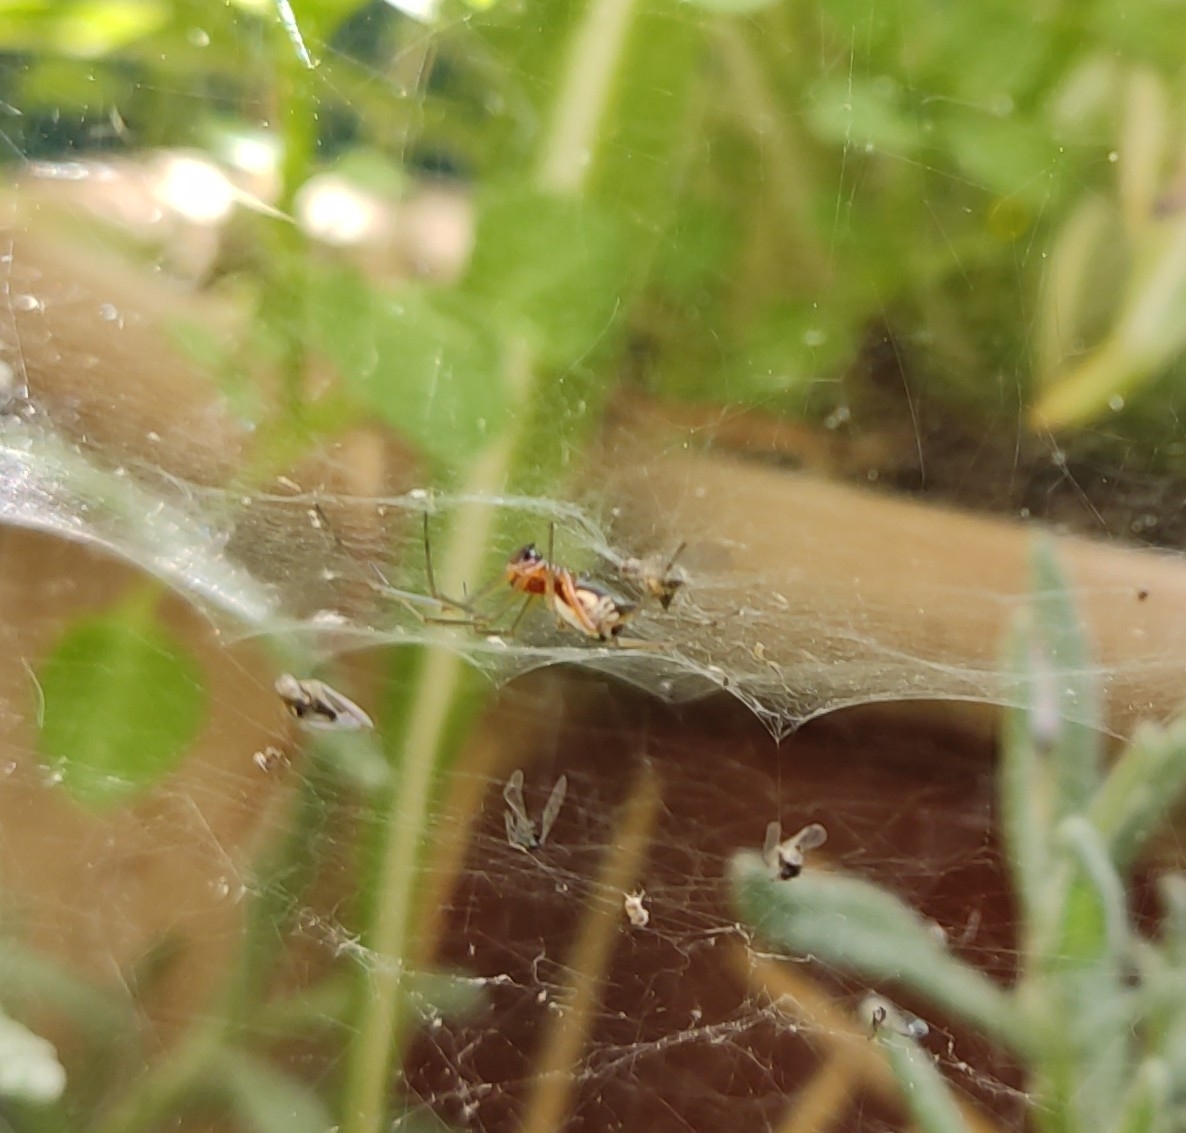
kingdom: Animalia
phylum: Arthropoda
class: Arachnida
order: Araneae
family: Linyphiidae
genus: Frontinellina
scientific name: Frontinellina frutetorum
